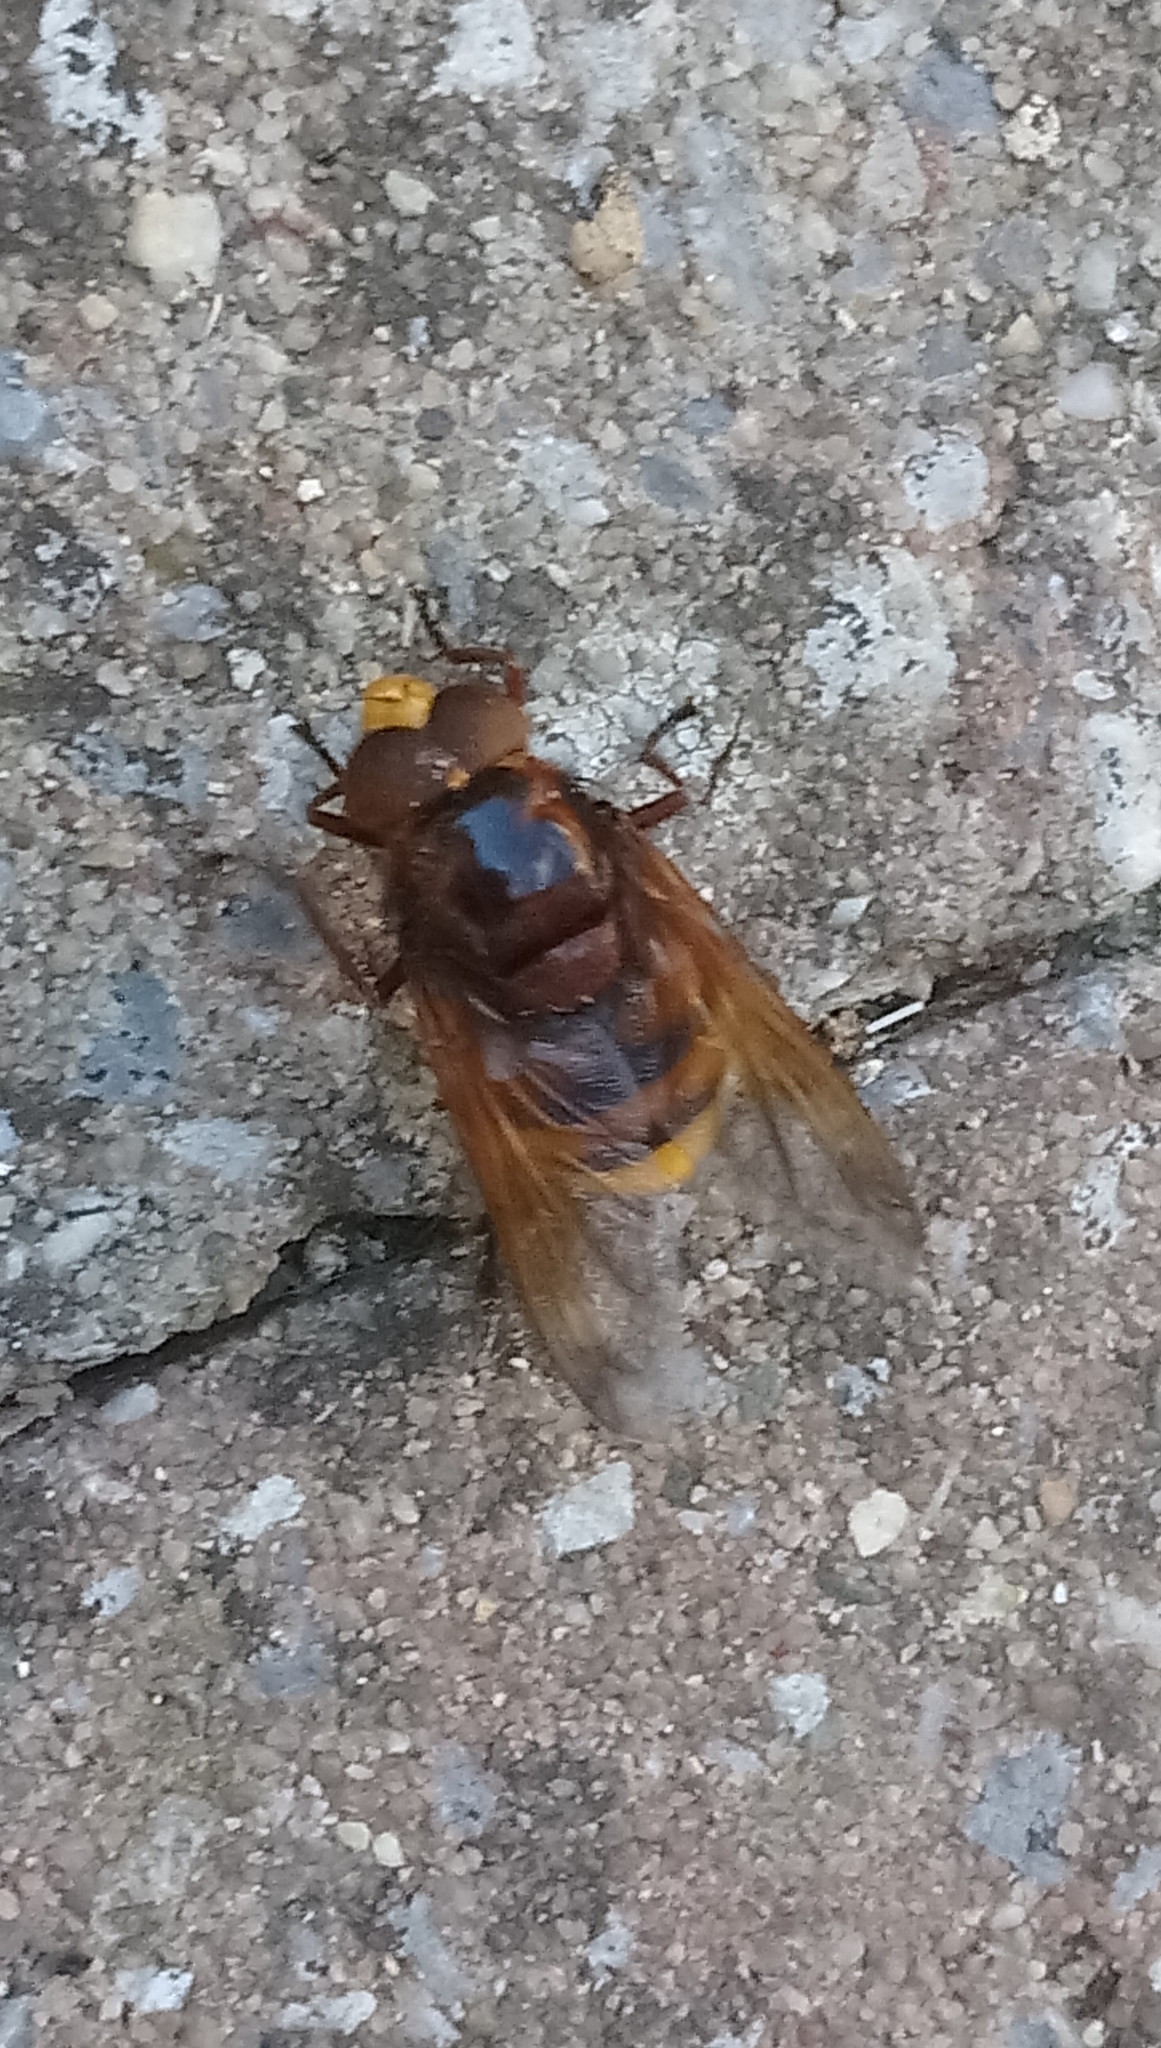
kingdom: Animalia
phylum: Arthropoda
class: Insecta
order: Diptera
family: Syrphidae
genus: Volucella
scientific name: Volucella zonaria
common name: Hornet hoverfly
